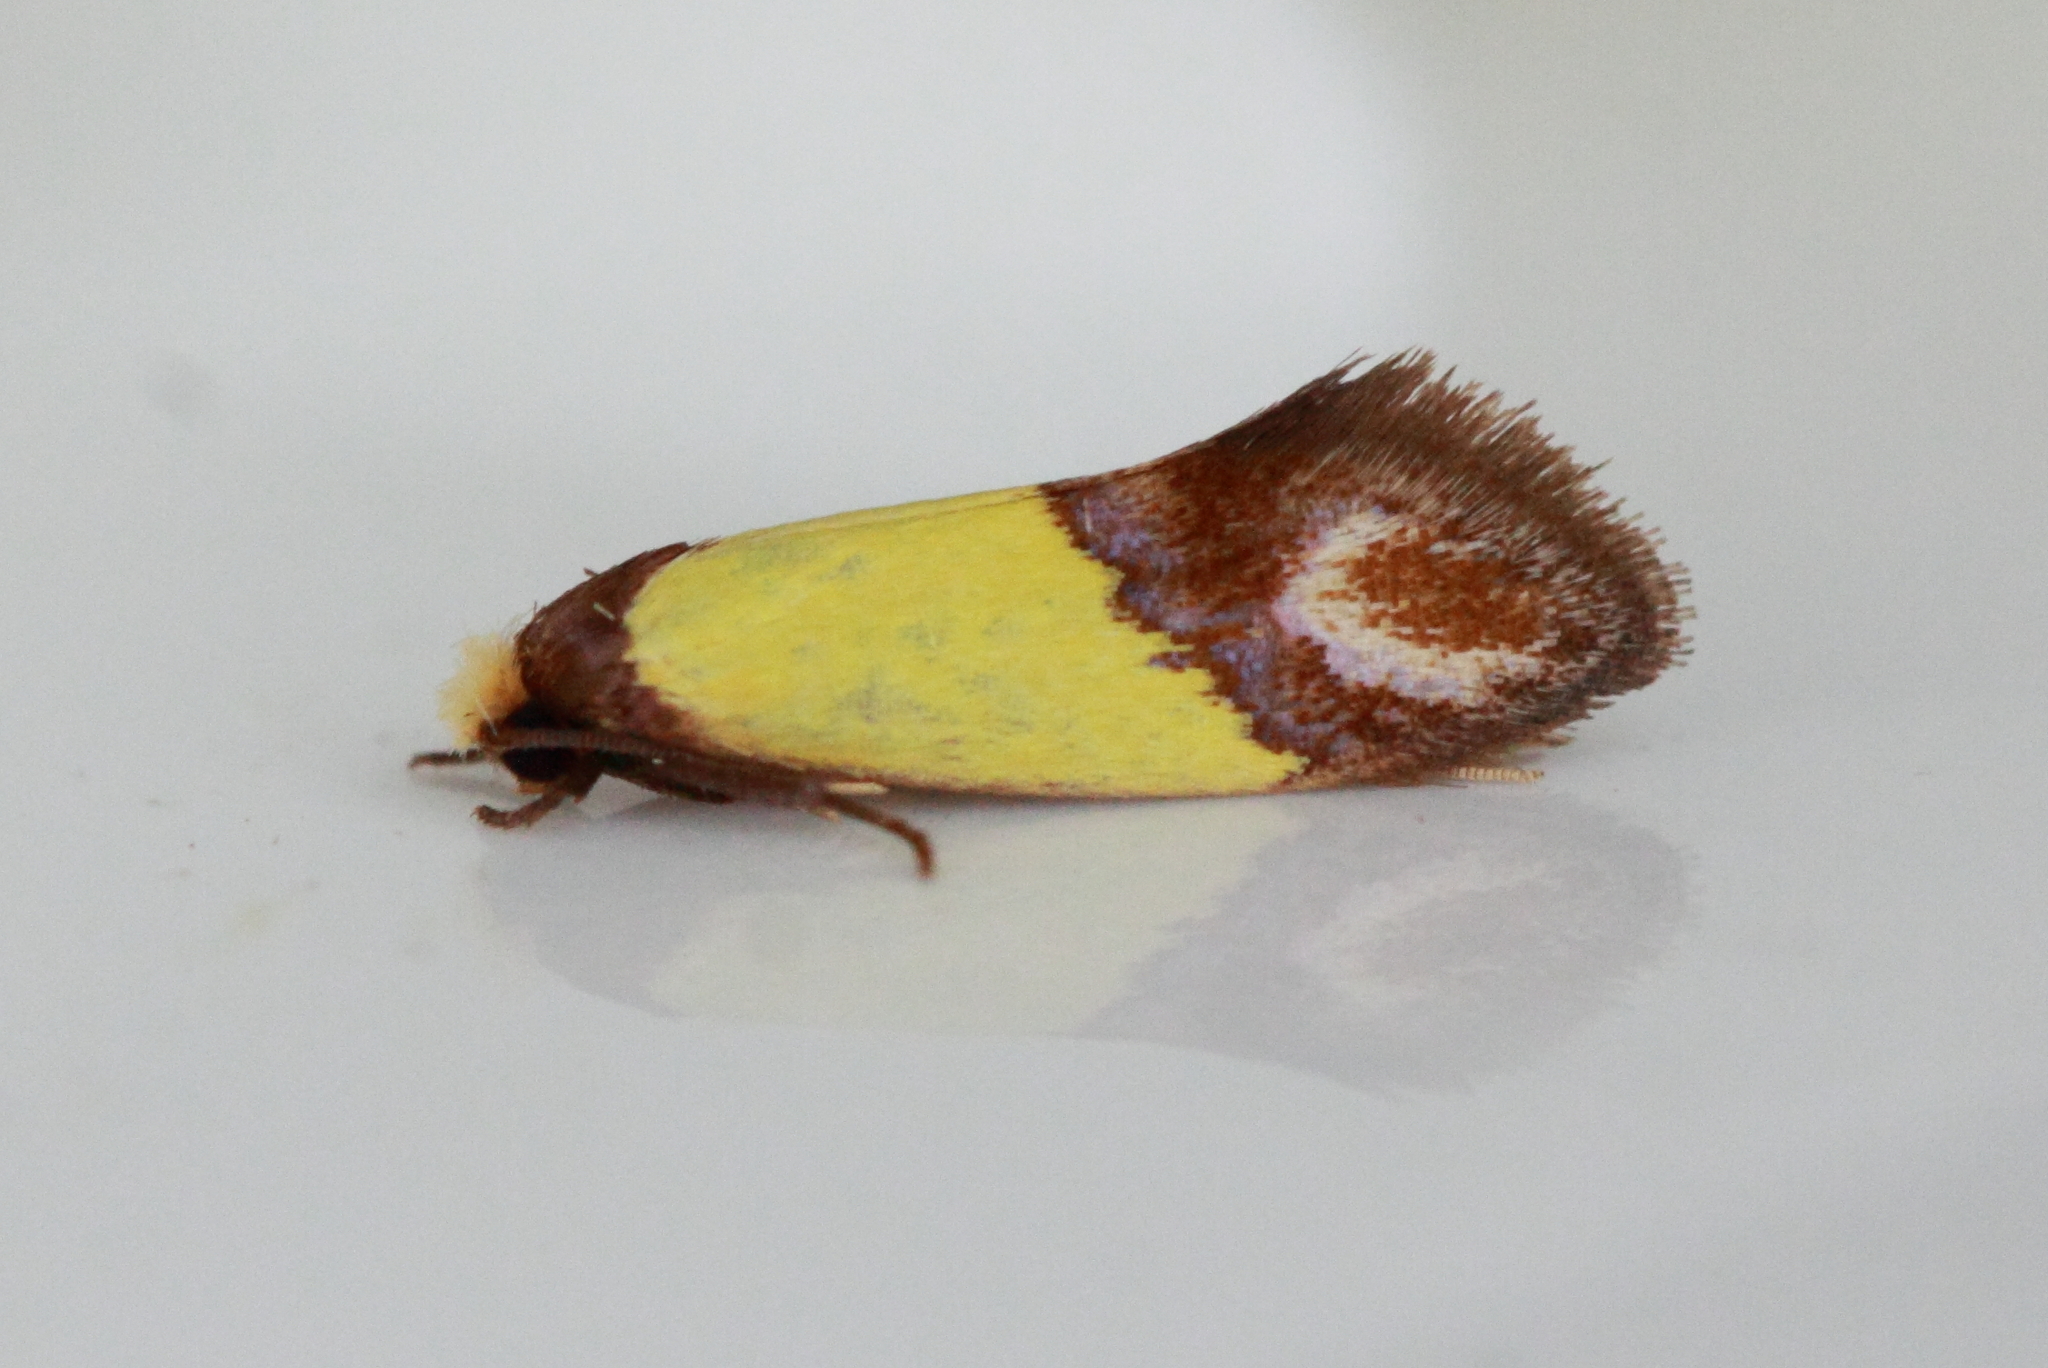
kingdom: Animalia
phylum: Arthropoda
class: Insecta
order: Lepidoptera
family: Tineidae
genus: Edosa
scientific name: Edosa xystidophora
